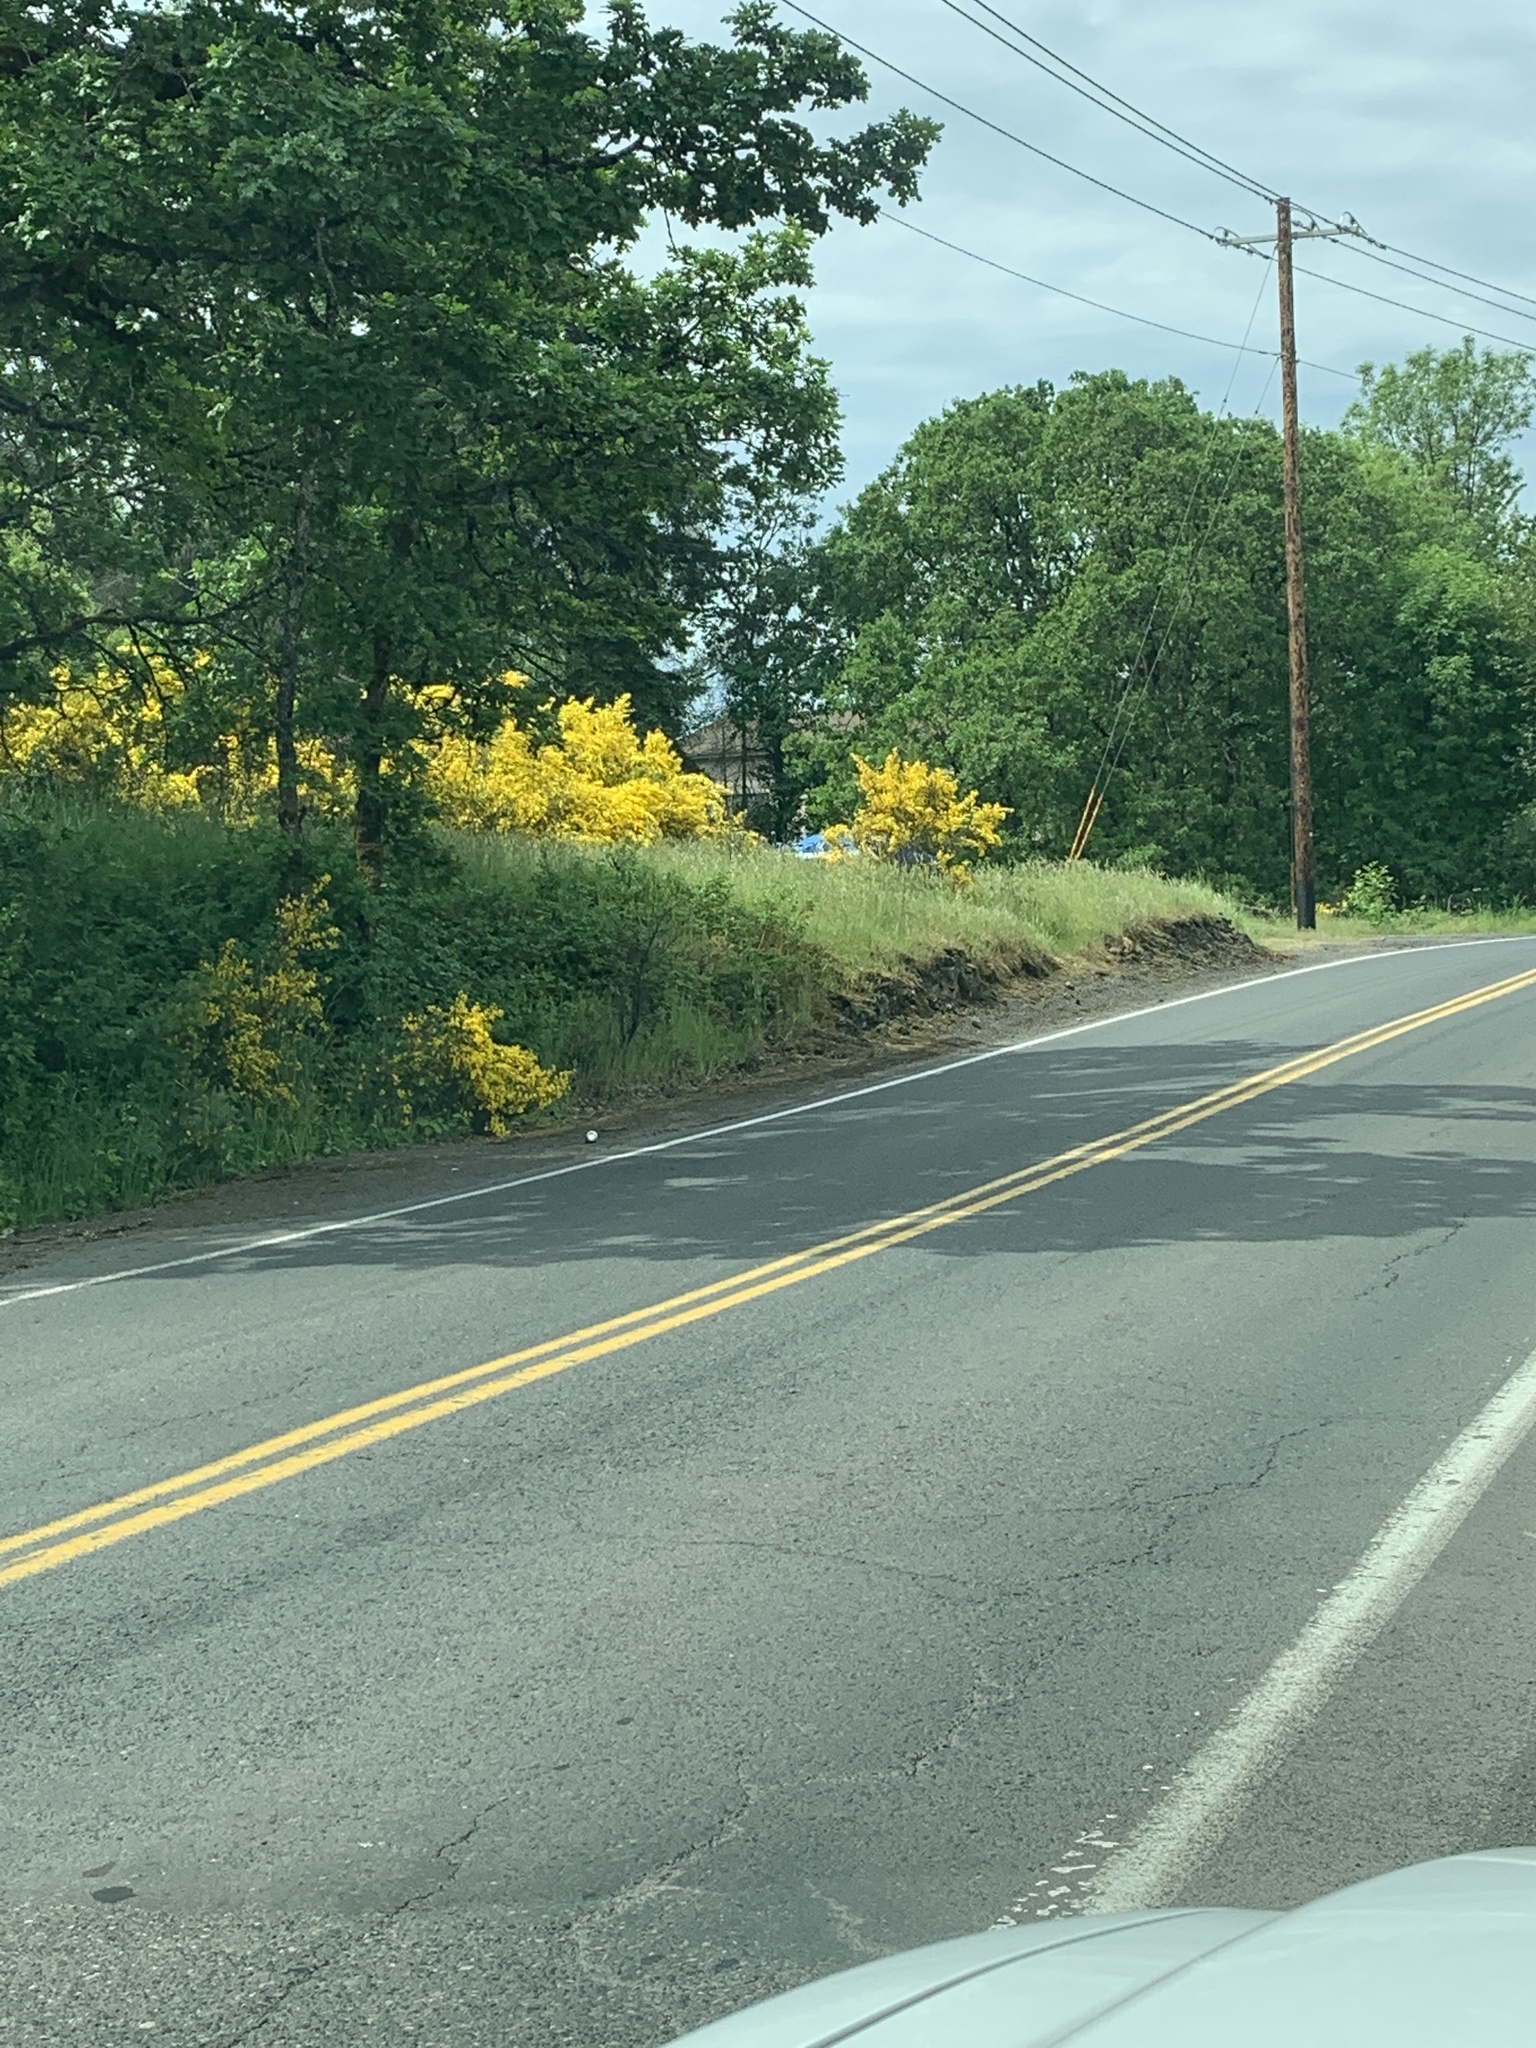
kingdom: Plantae
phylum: Tracheophyta
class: Magnoliopsida
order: Fabales
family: Fabaceae
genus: Cytisus
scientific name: Cytisus scoparius
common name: Scotch broom
